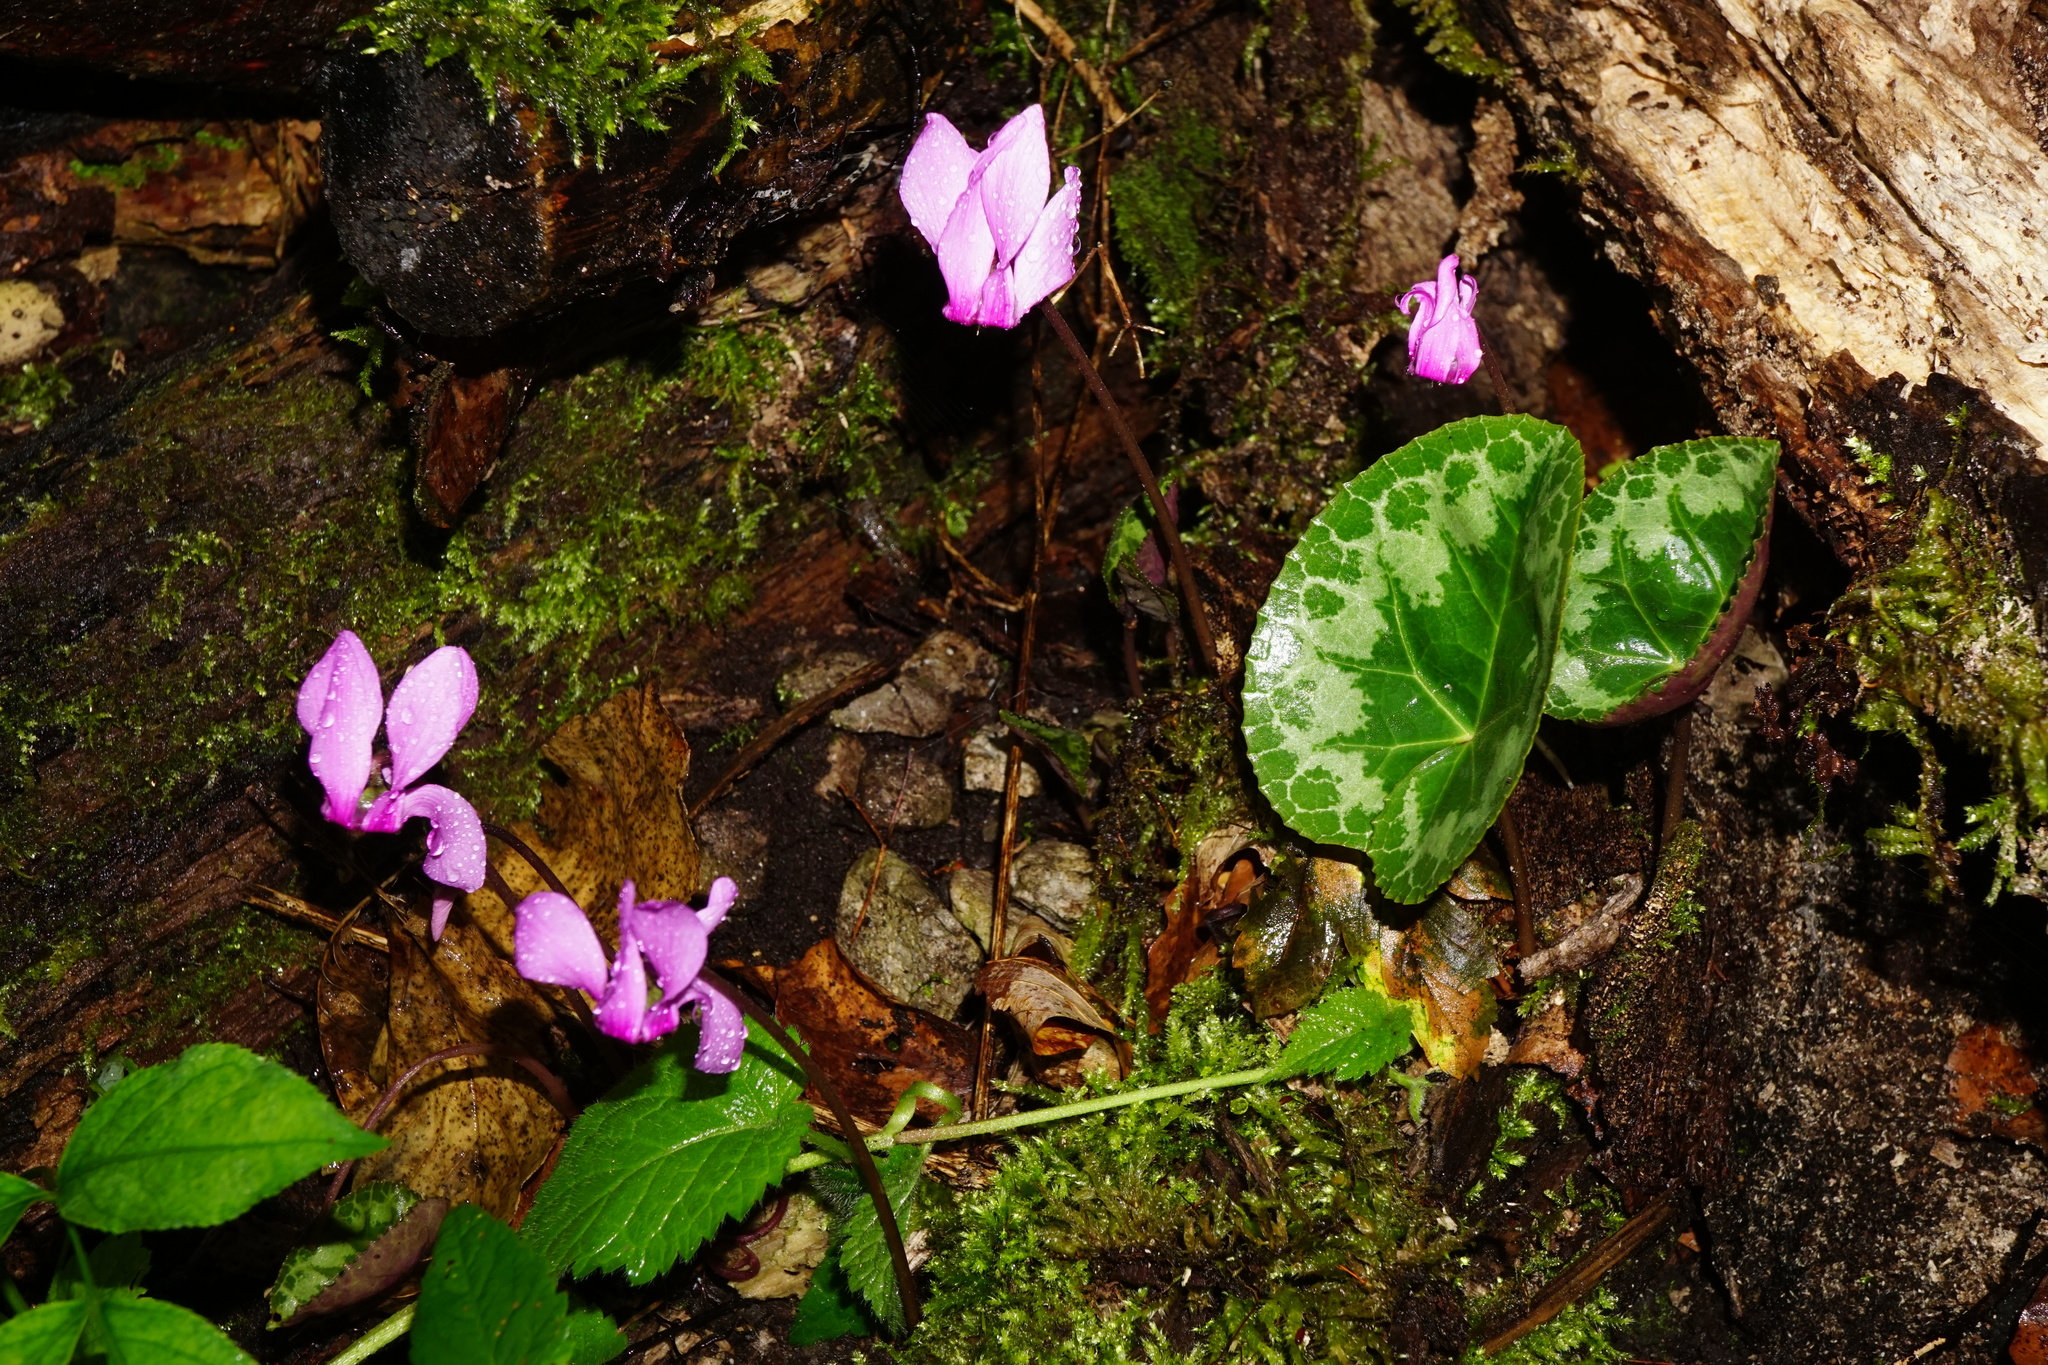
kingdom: Plantae
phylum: Tracheophyta
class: Magnoliopsida
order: Ericales
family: Primulaceae
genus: Cyclamen
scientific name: Cyclamen purpurascens
